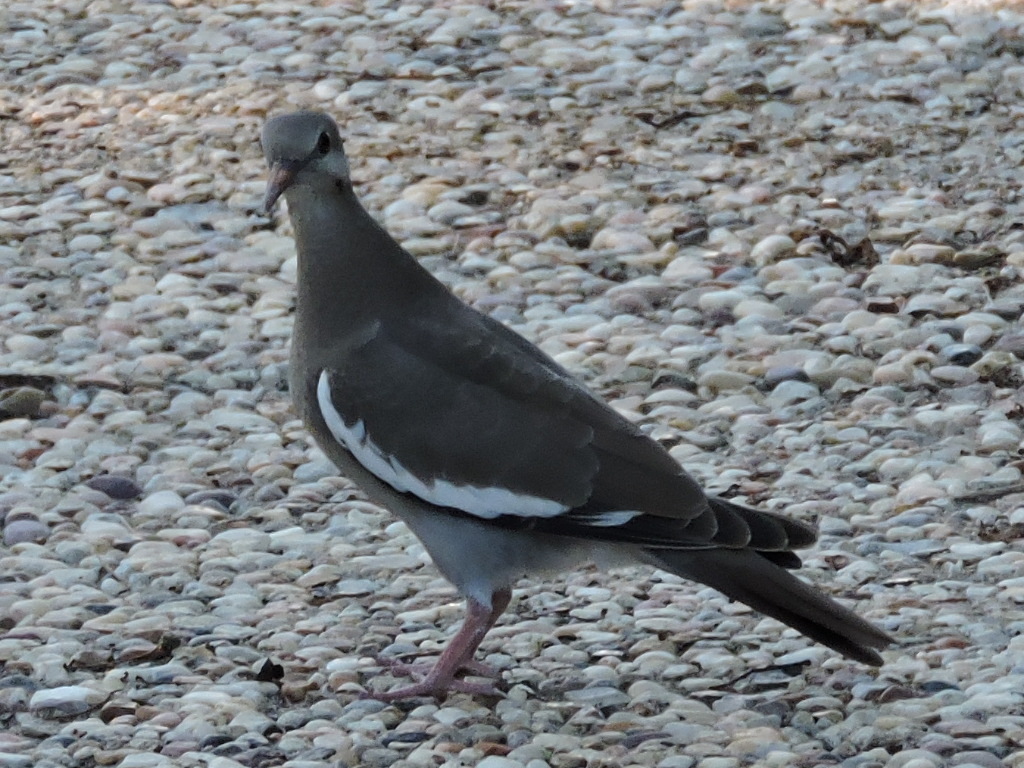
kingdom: Animalia
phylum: Chordata
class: Aves
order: Columbiformes
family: Columbidae
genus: Zenaida
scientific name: Zenaida asiatica
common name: White-winged dove
